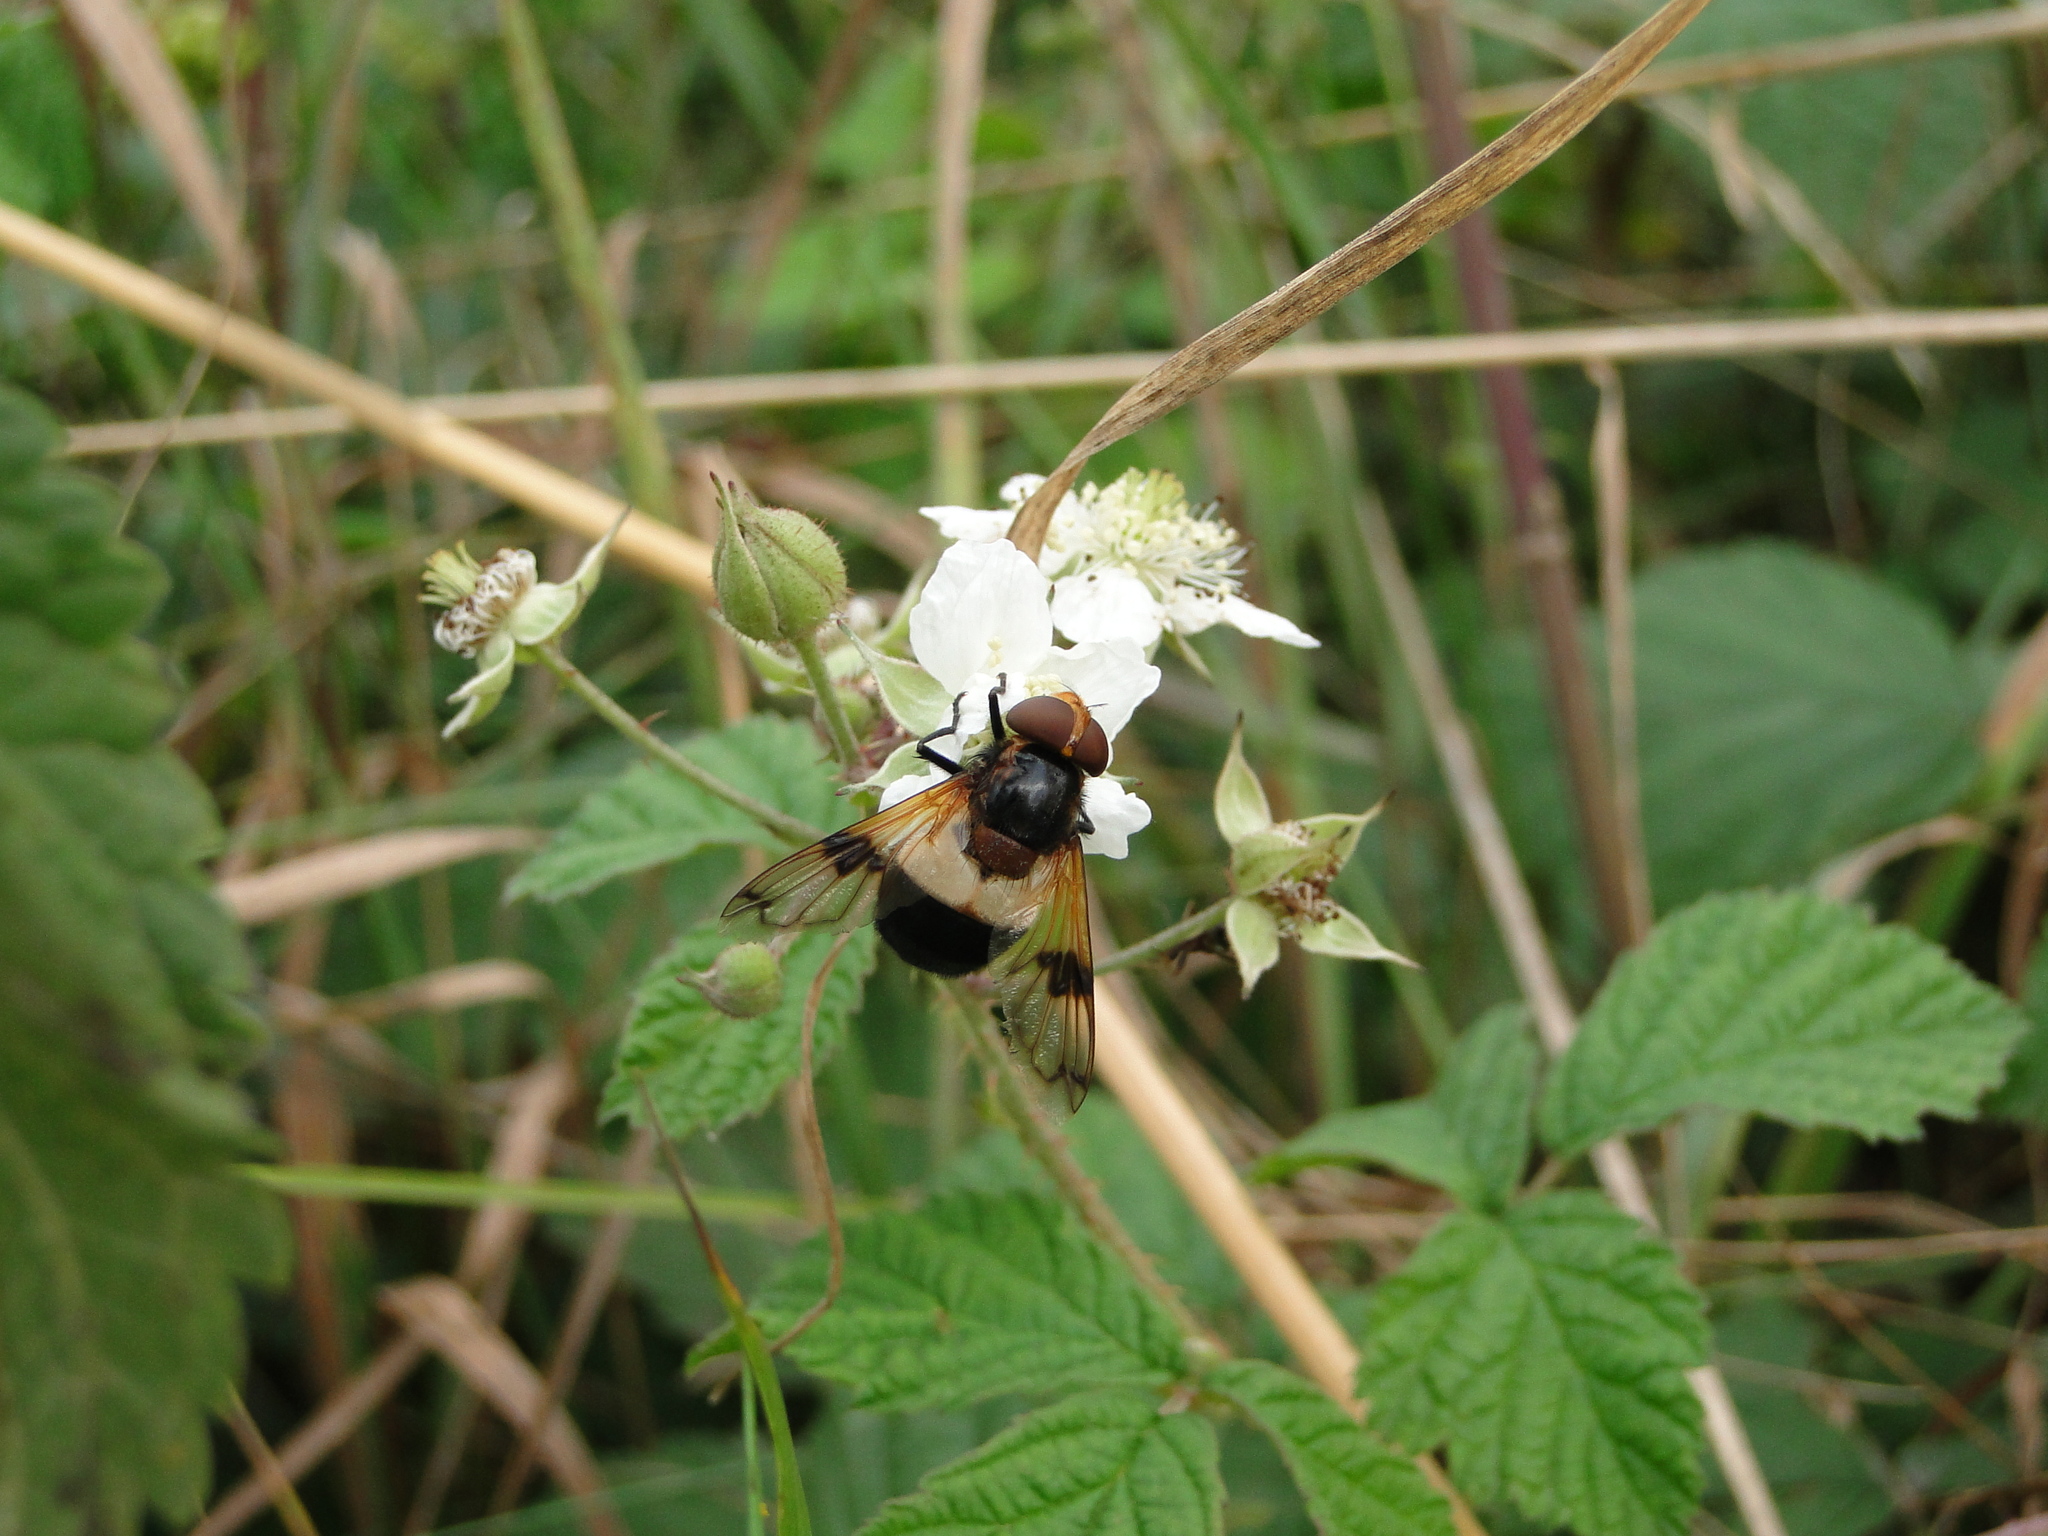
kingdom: Animalia
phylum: Arthropoda
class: Insecta
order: Diptera
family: Syrphidae
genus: Volucella
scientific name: Volucella pellucens
